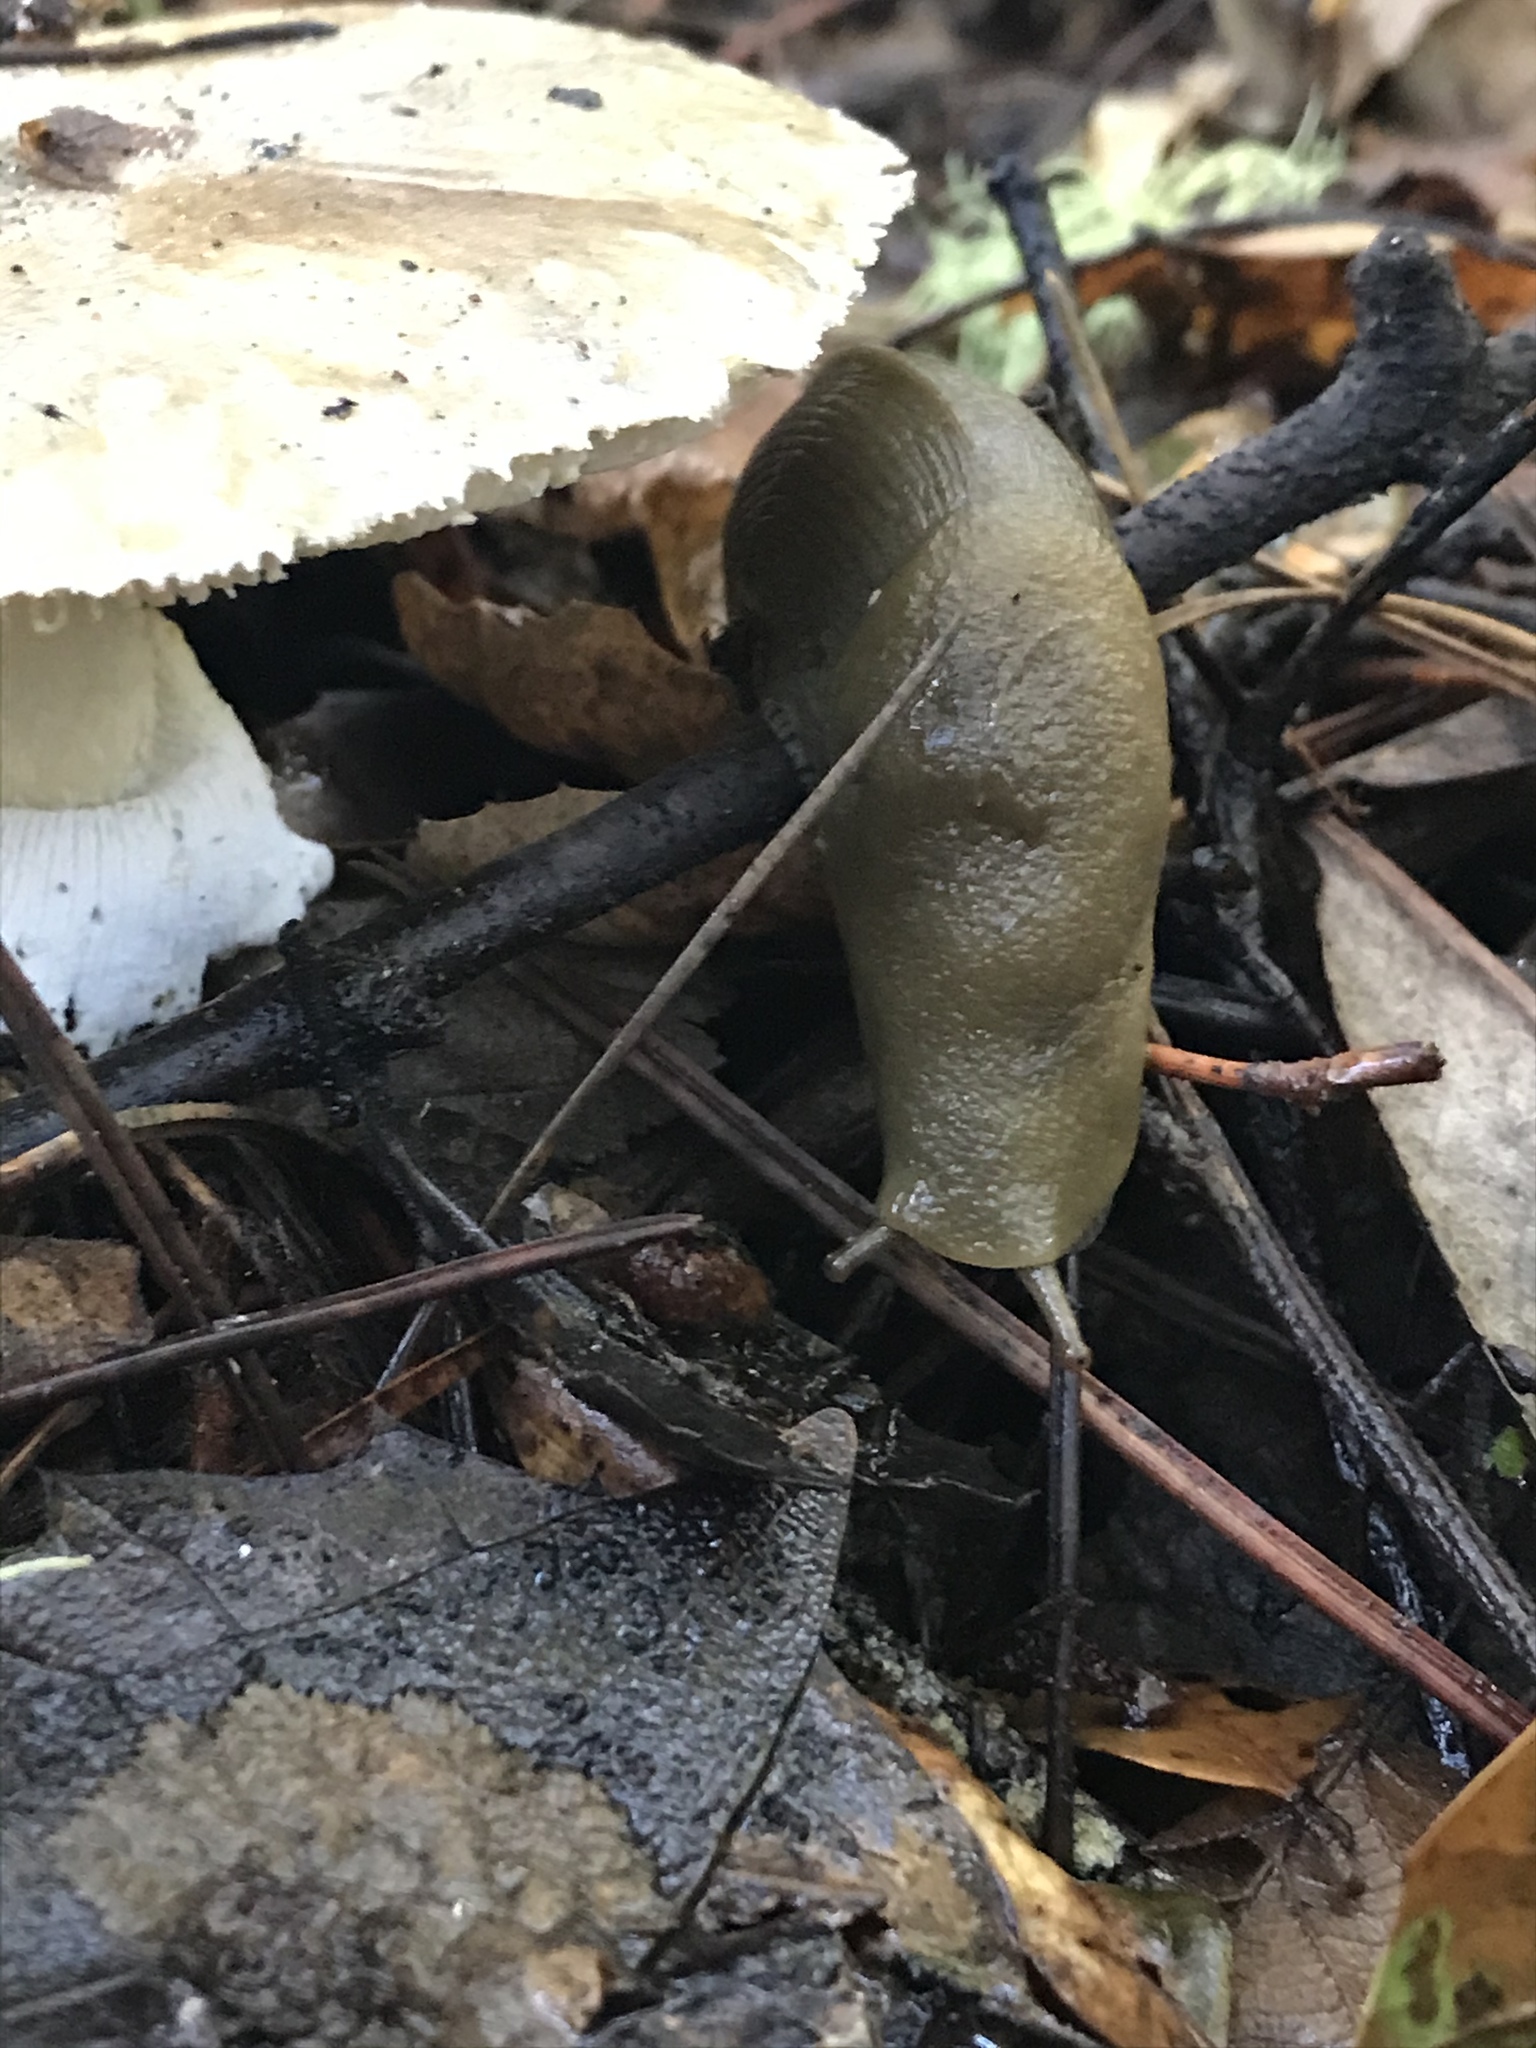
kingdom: Animalia
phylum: Mollusca
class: Gastropoda
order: Stylommatophora
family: Ariolimacidae
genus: Ariolimax
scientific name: Ariolimax buttoni
